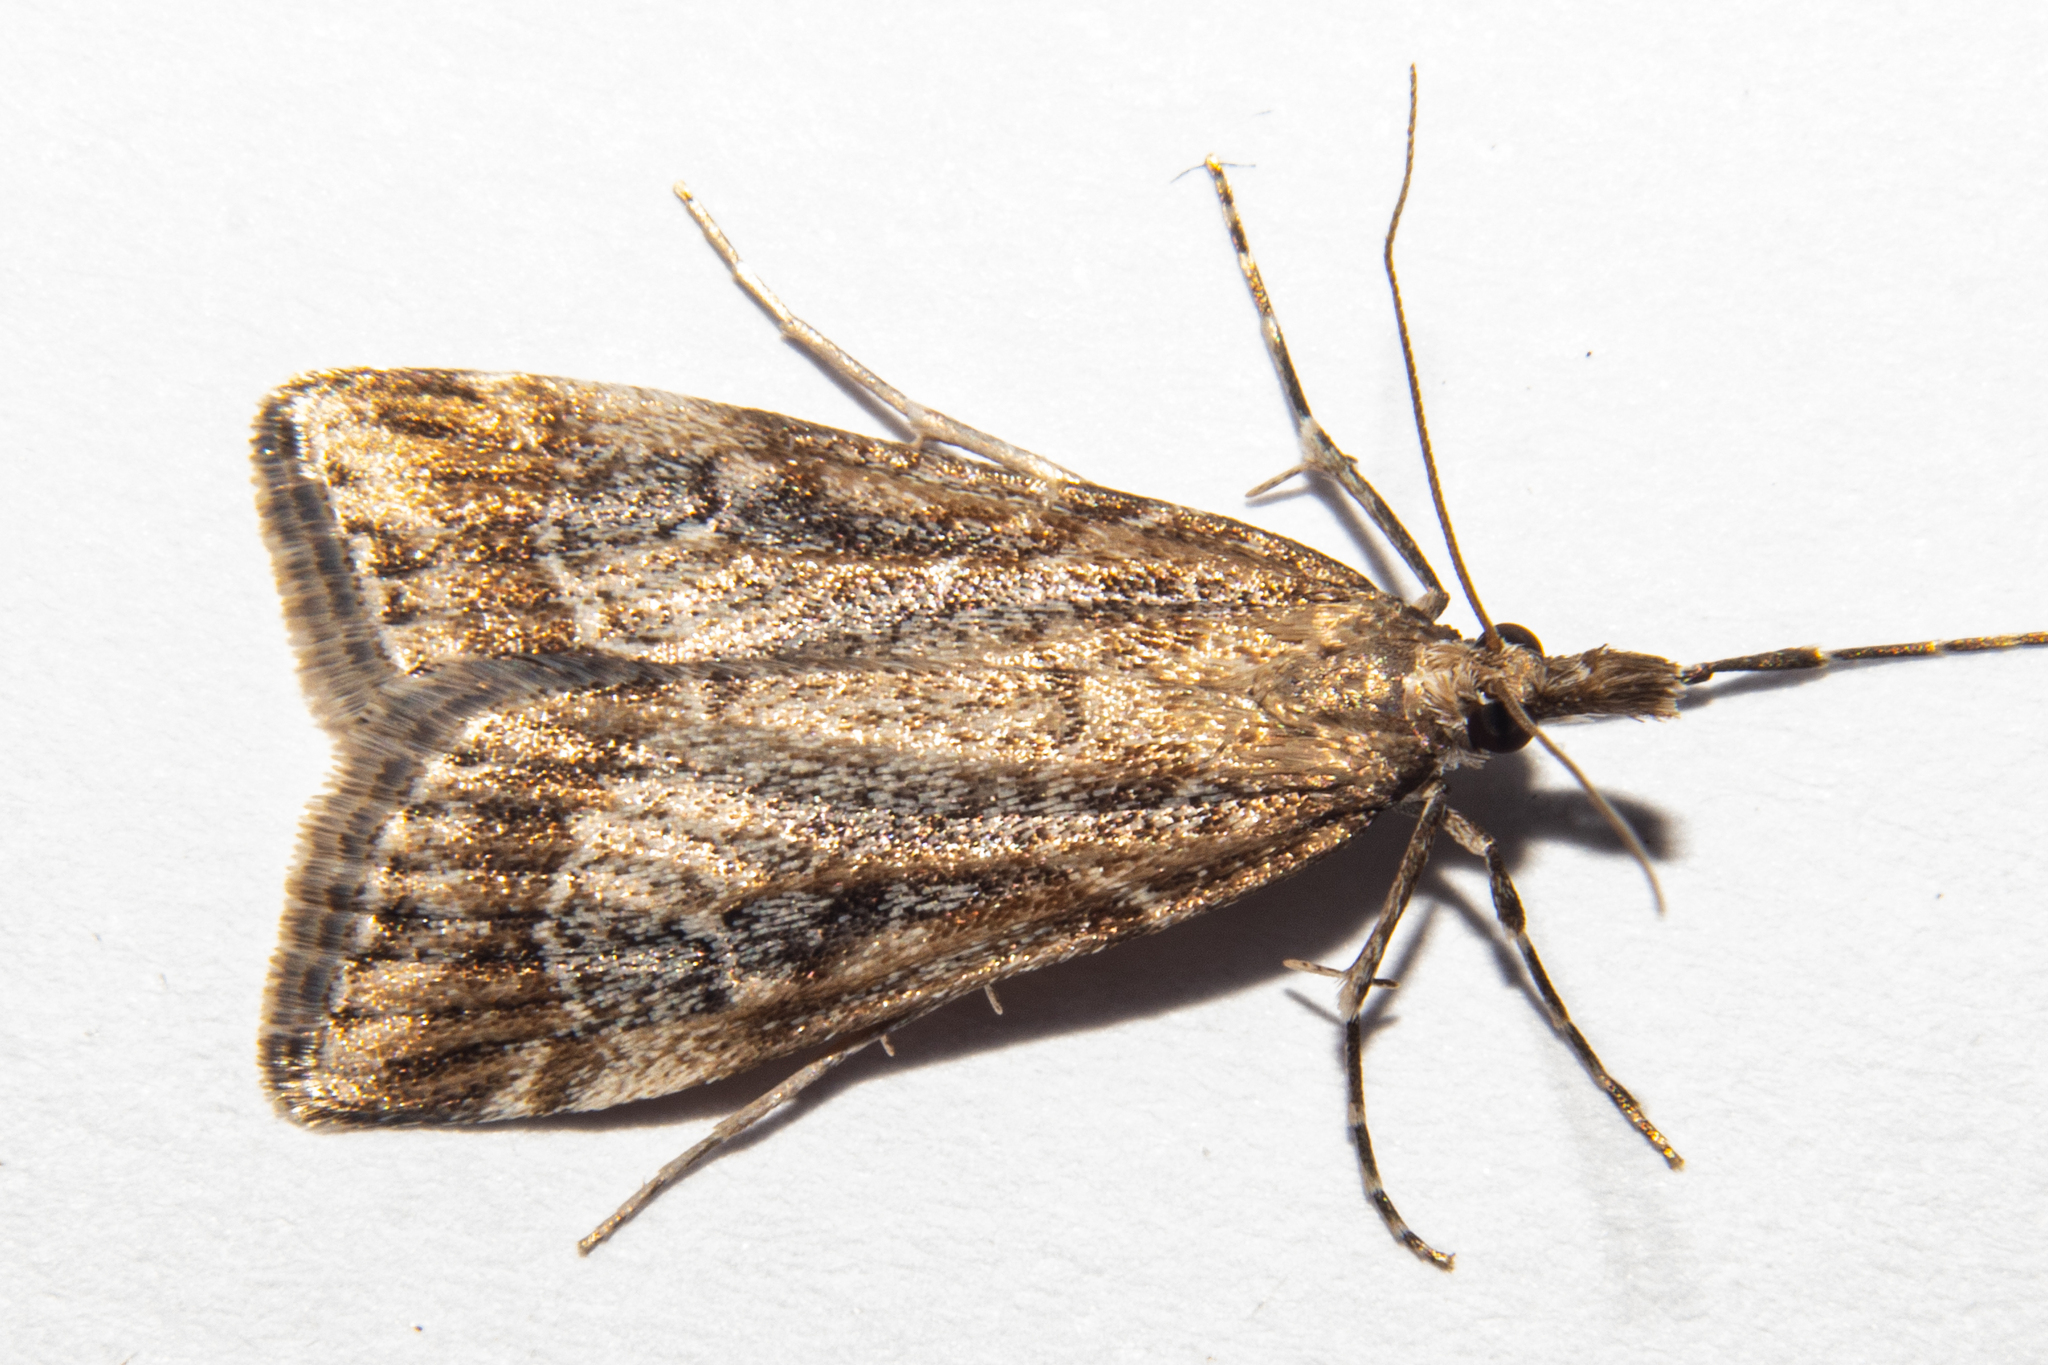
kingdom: Animalia
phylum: Arthropoda
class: Insecta
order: Lepidoptera
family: Crambidae
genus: Eudonia
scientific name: Eudonia chalara
